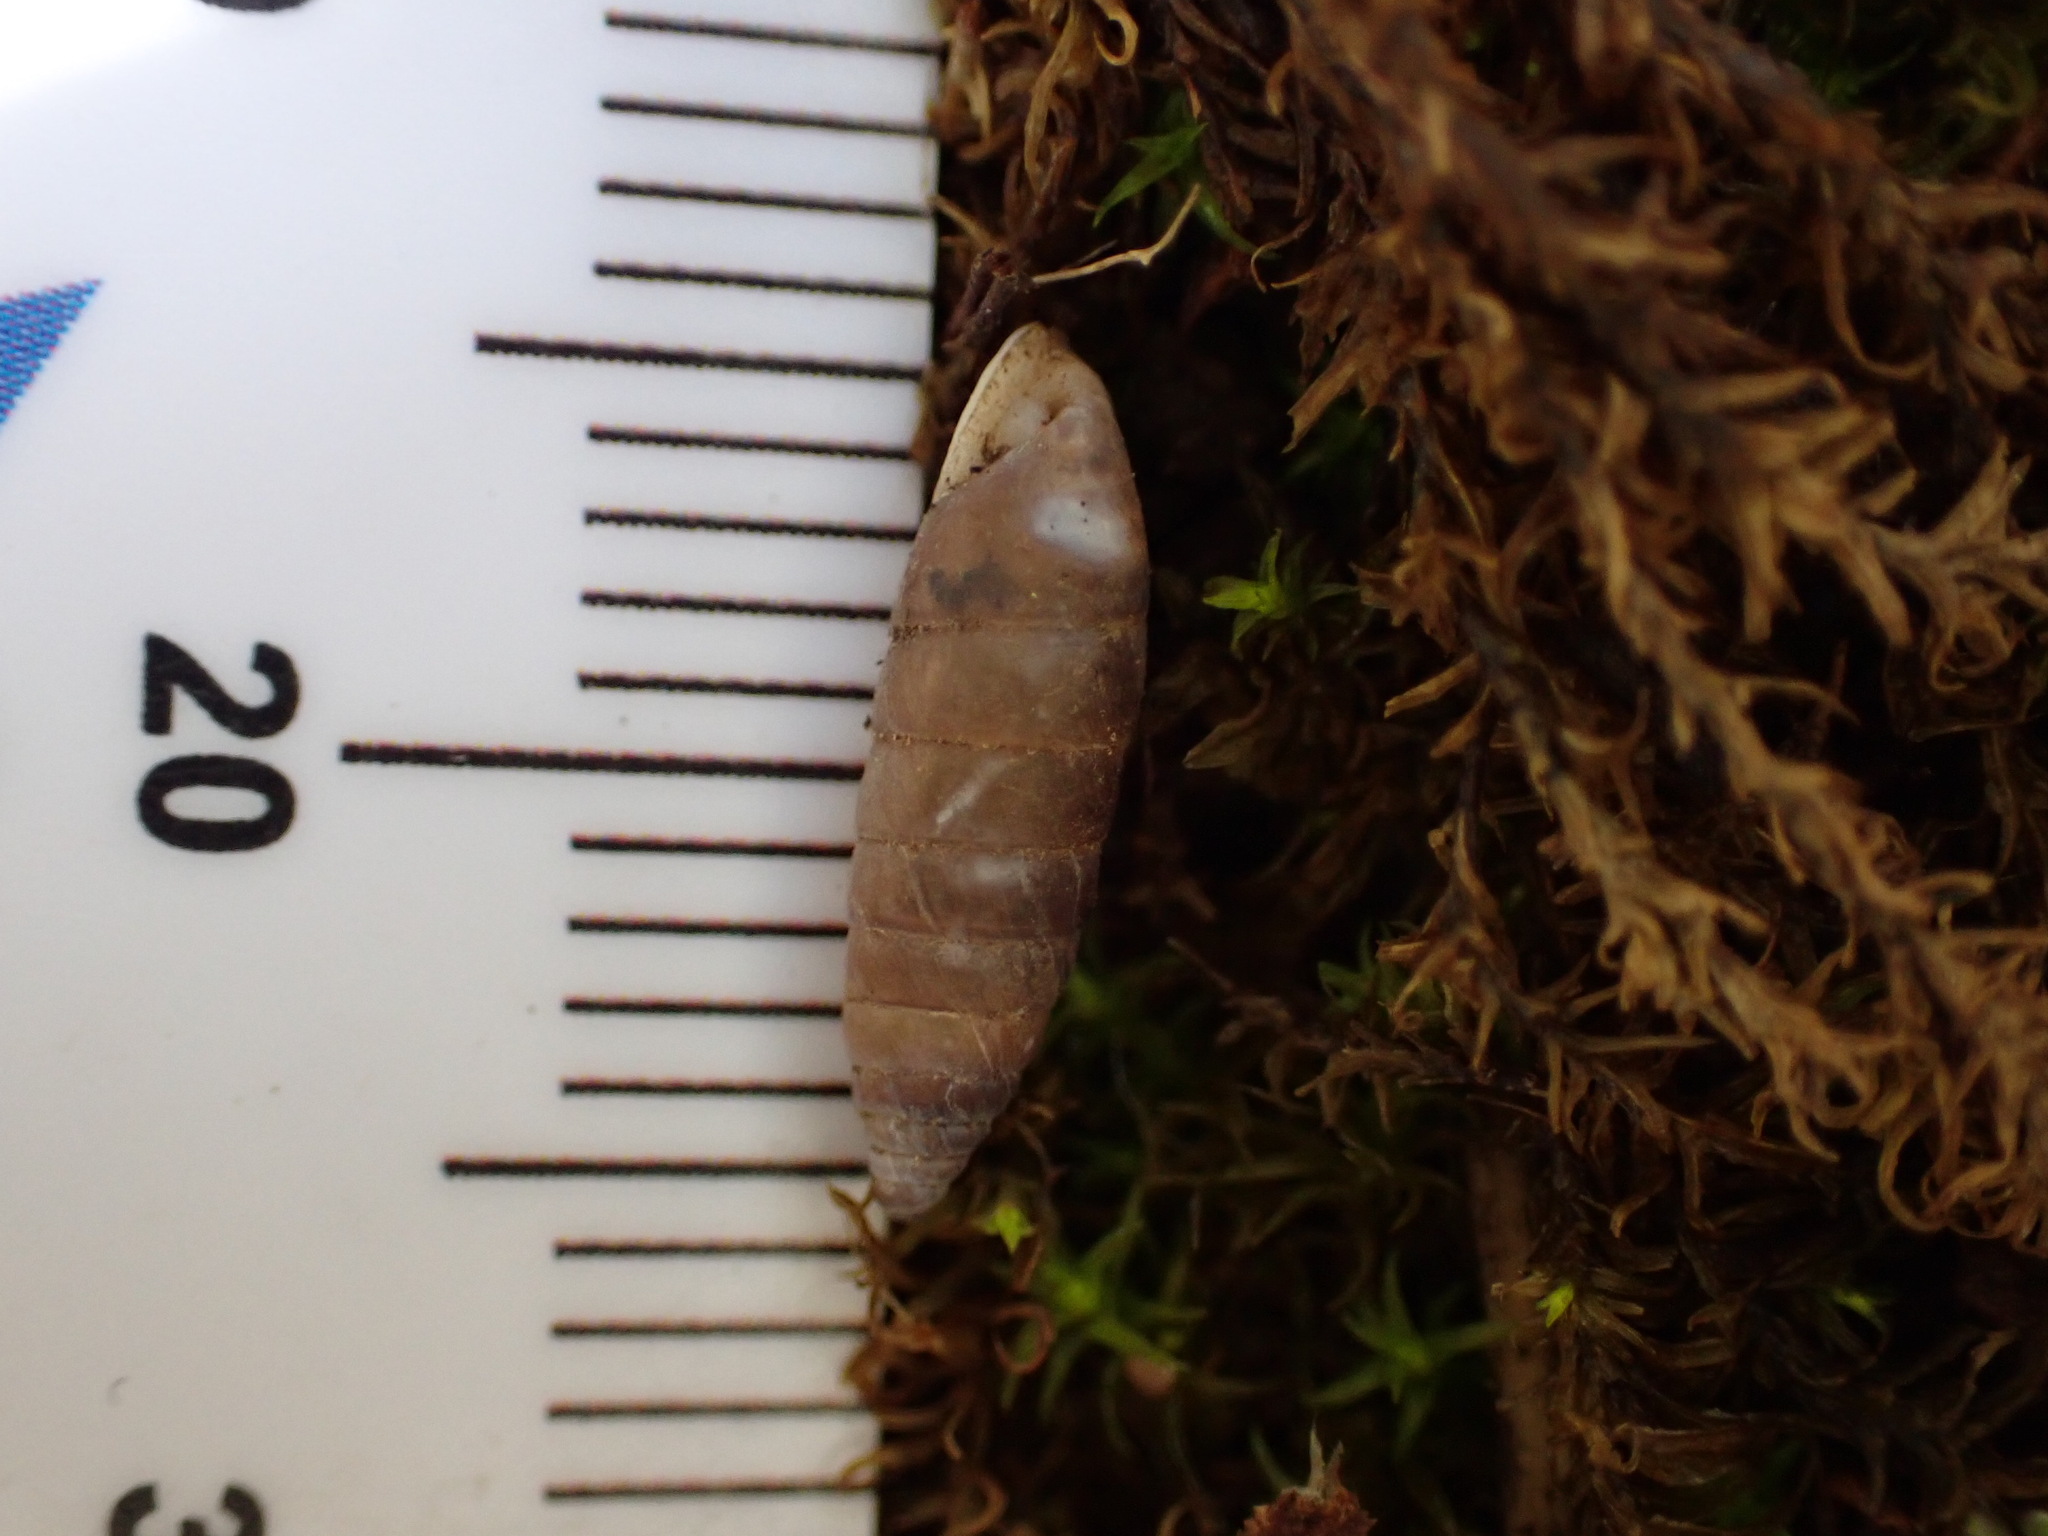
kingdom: Animalia
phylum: Mollusca
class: Gastropoda
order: Stylommatophora
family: Chondrinidae
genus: Granaria
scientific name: Granaria variabilis
